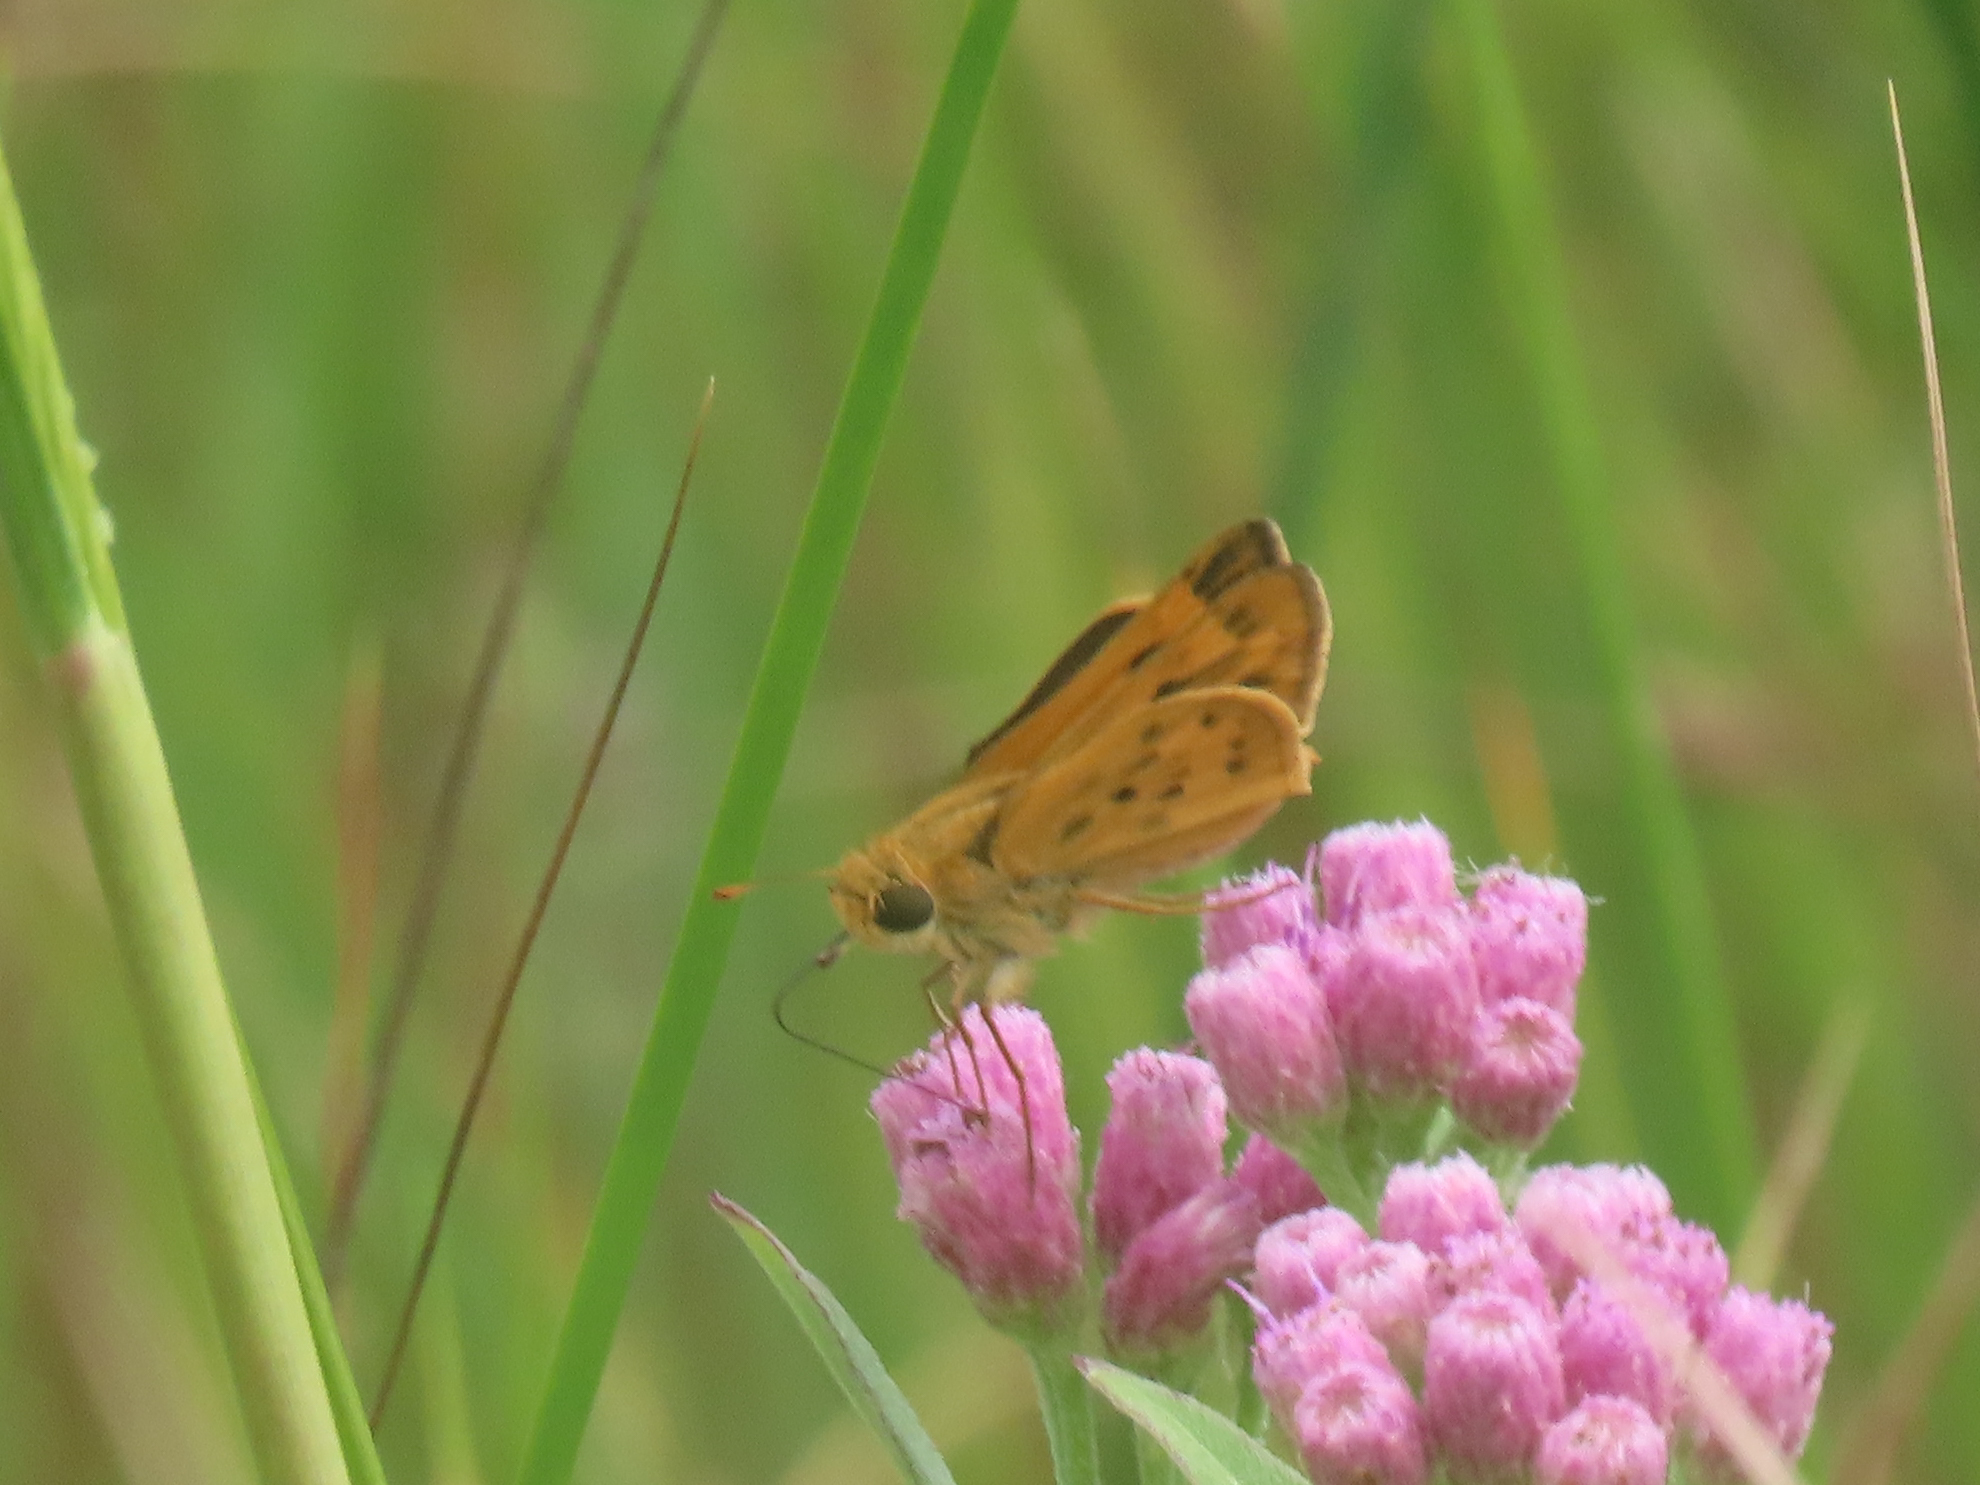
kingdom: Animalia
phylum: Arthropoda
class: Insecta
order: Lepidoptera
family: Hesperiidae
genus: Hylephila
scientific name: Hylephila phyleus
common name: Fiery skipper
